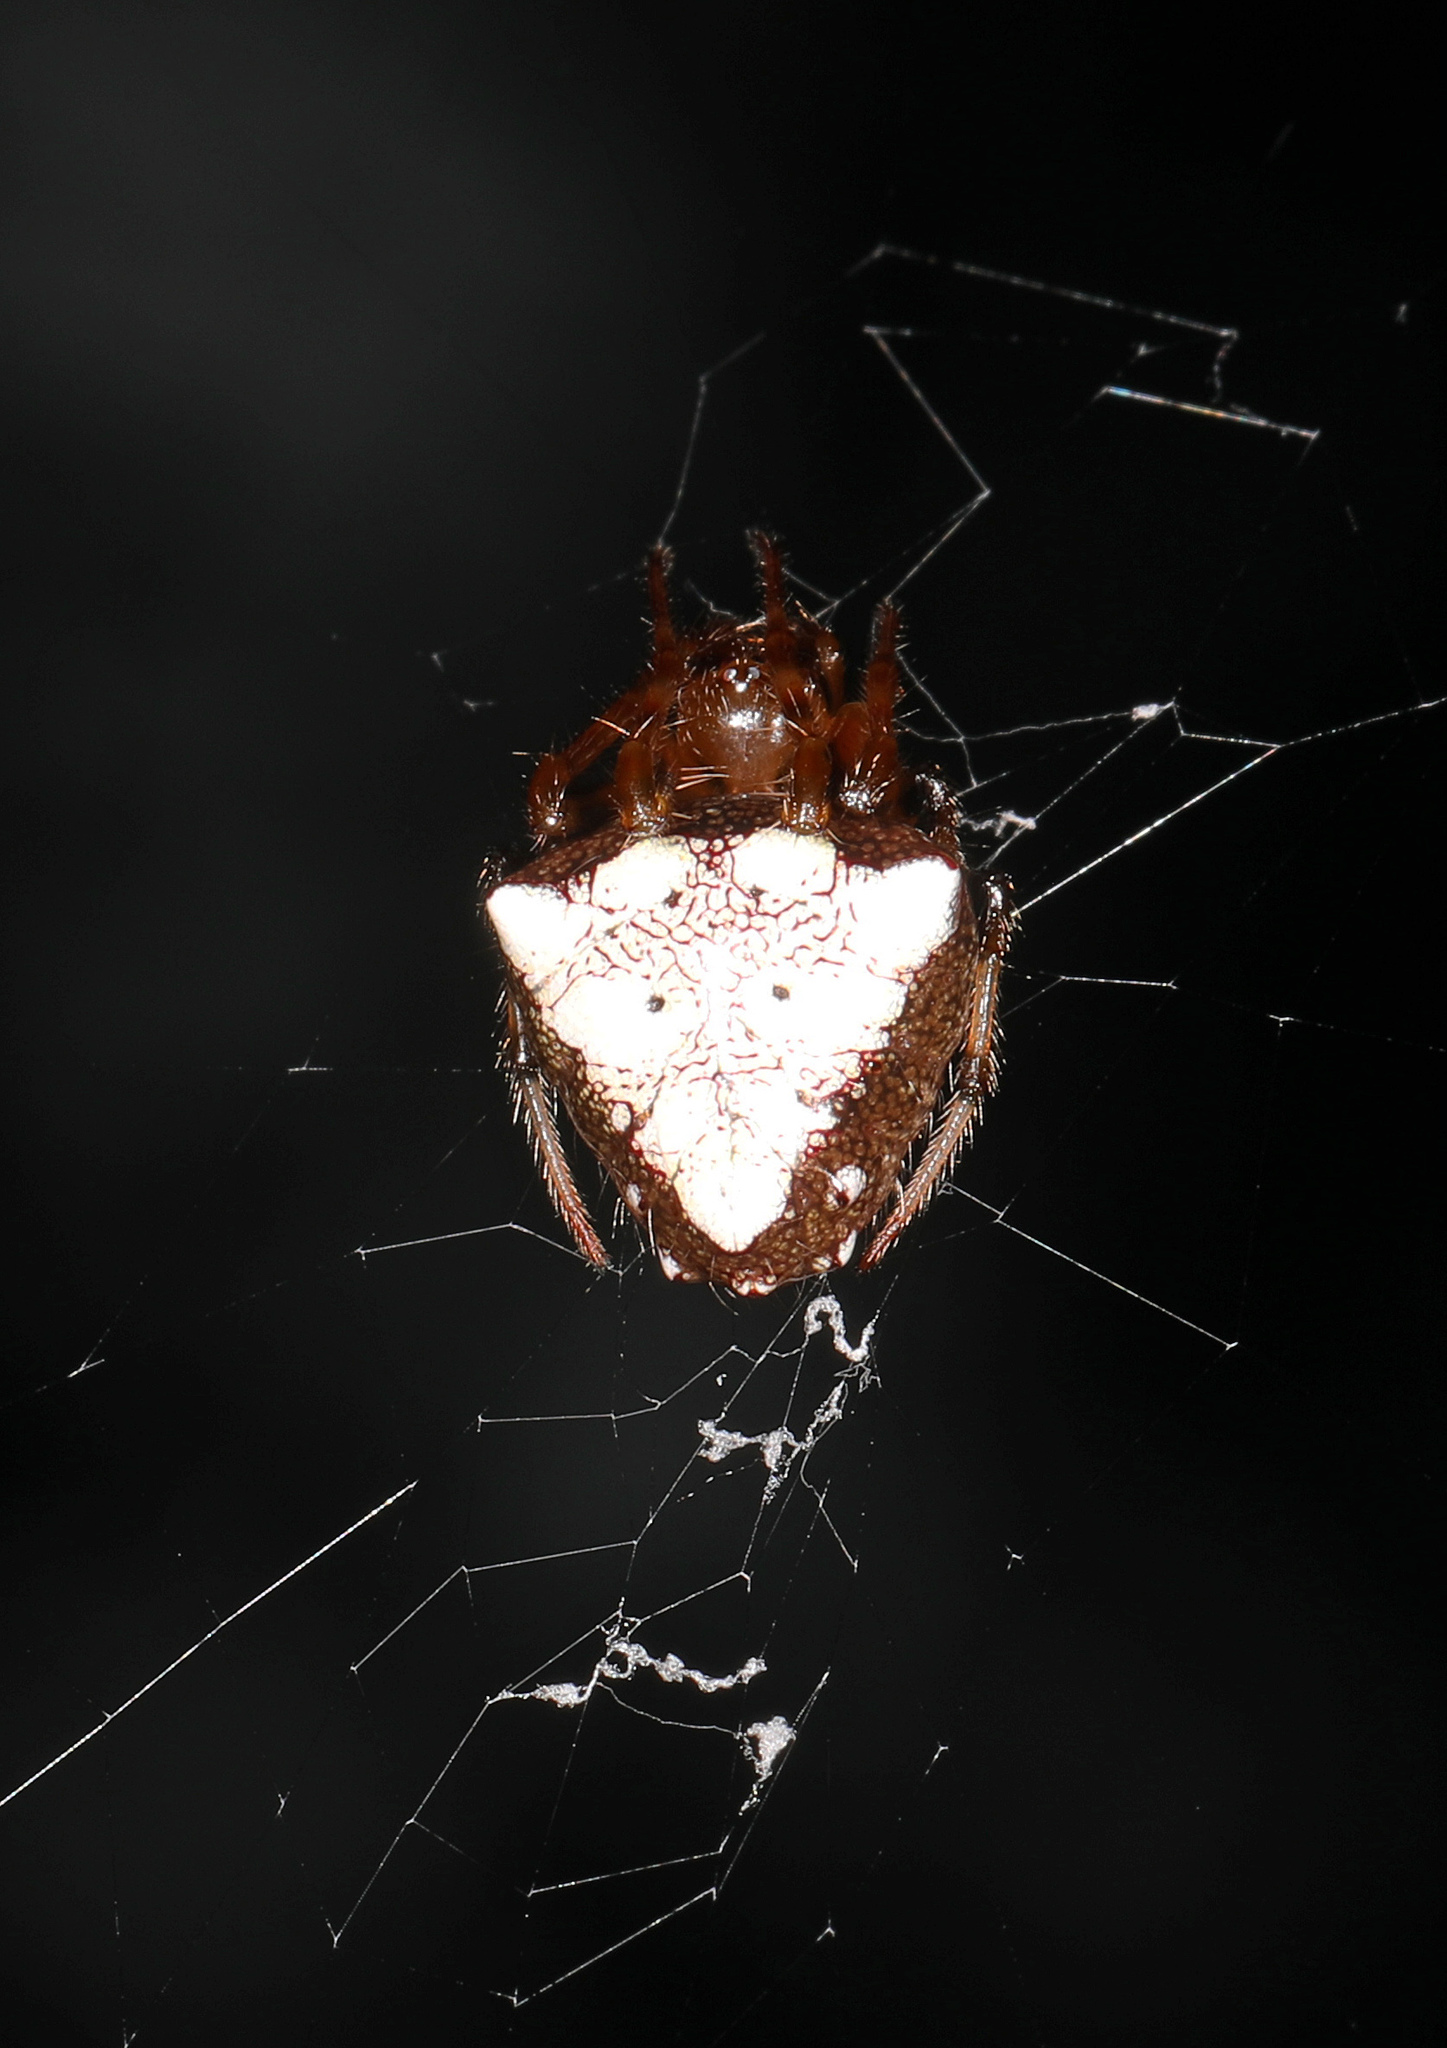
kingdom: Animalia
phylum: Arthropoda
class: Arachnida
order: Araneae
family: Araneidae
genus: Verrucosa
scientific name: Verrucosa arenata
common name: Orb weavers
